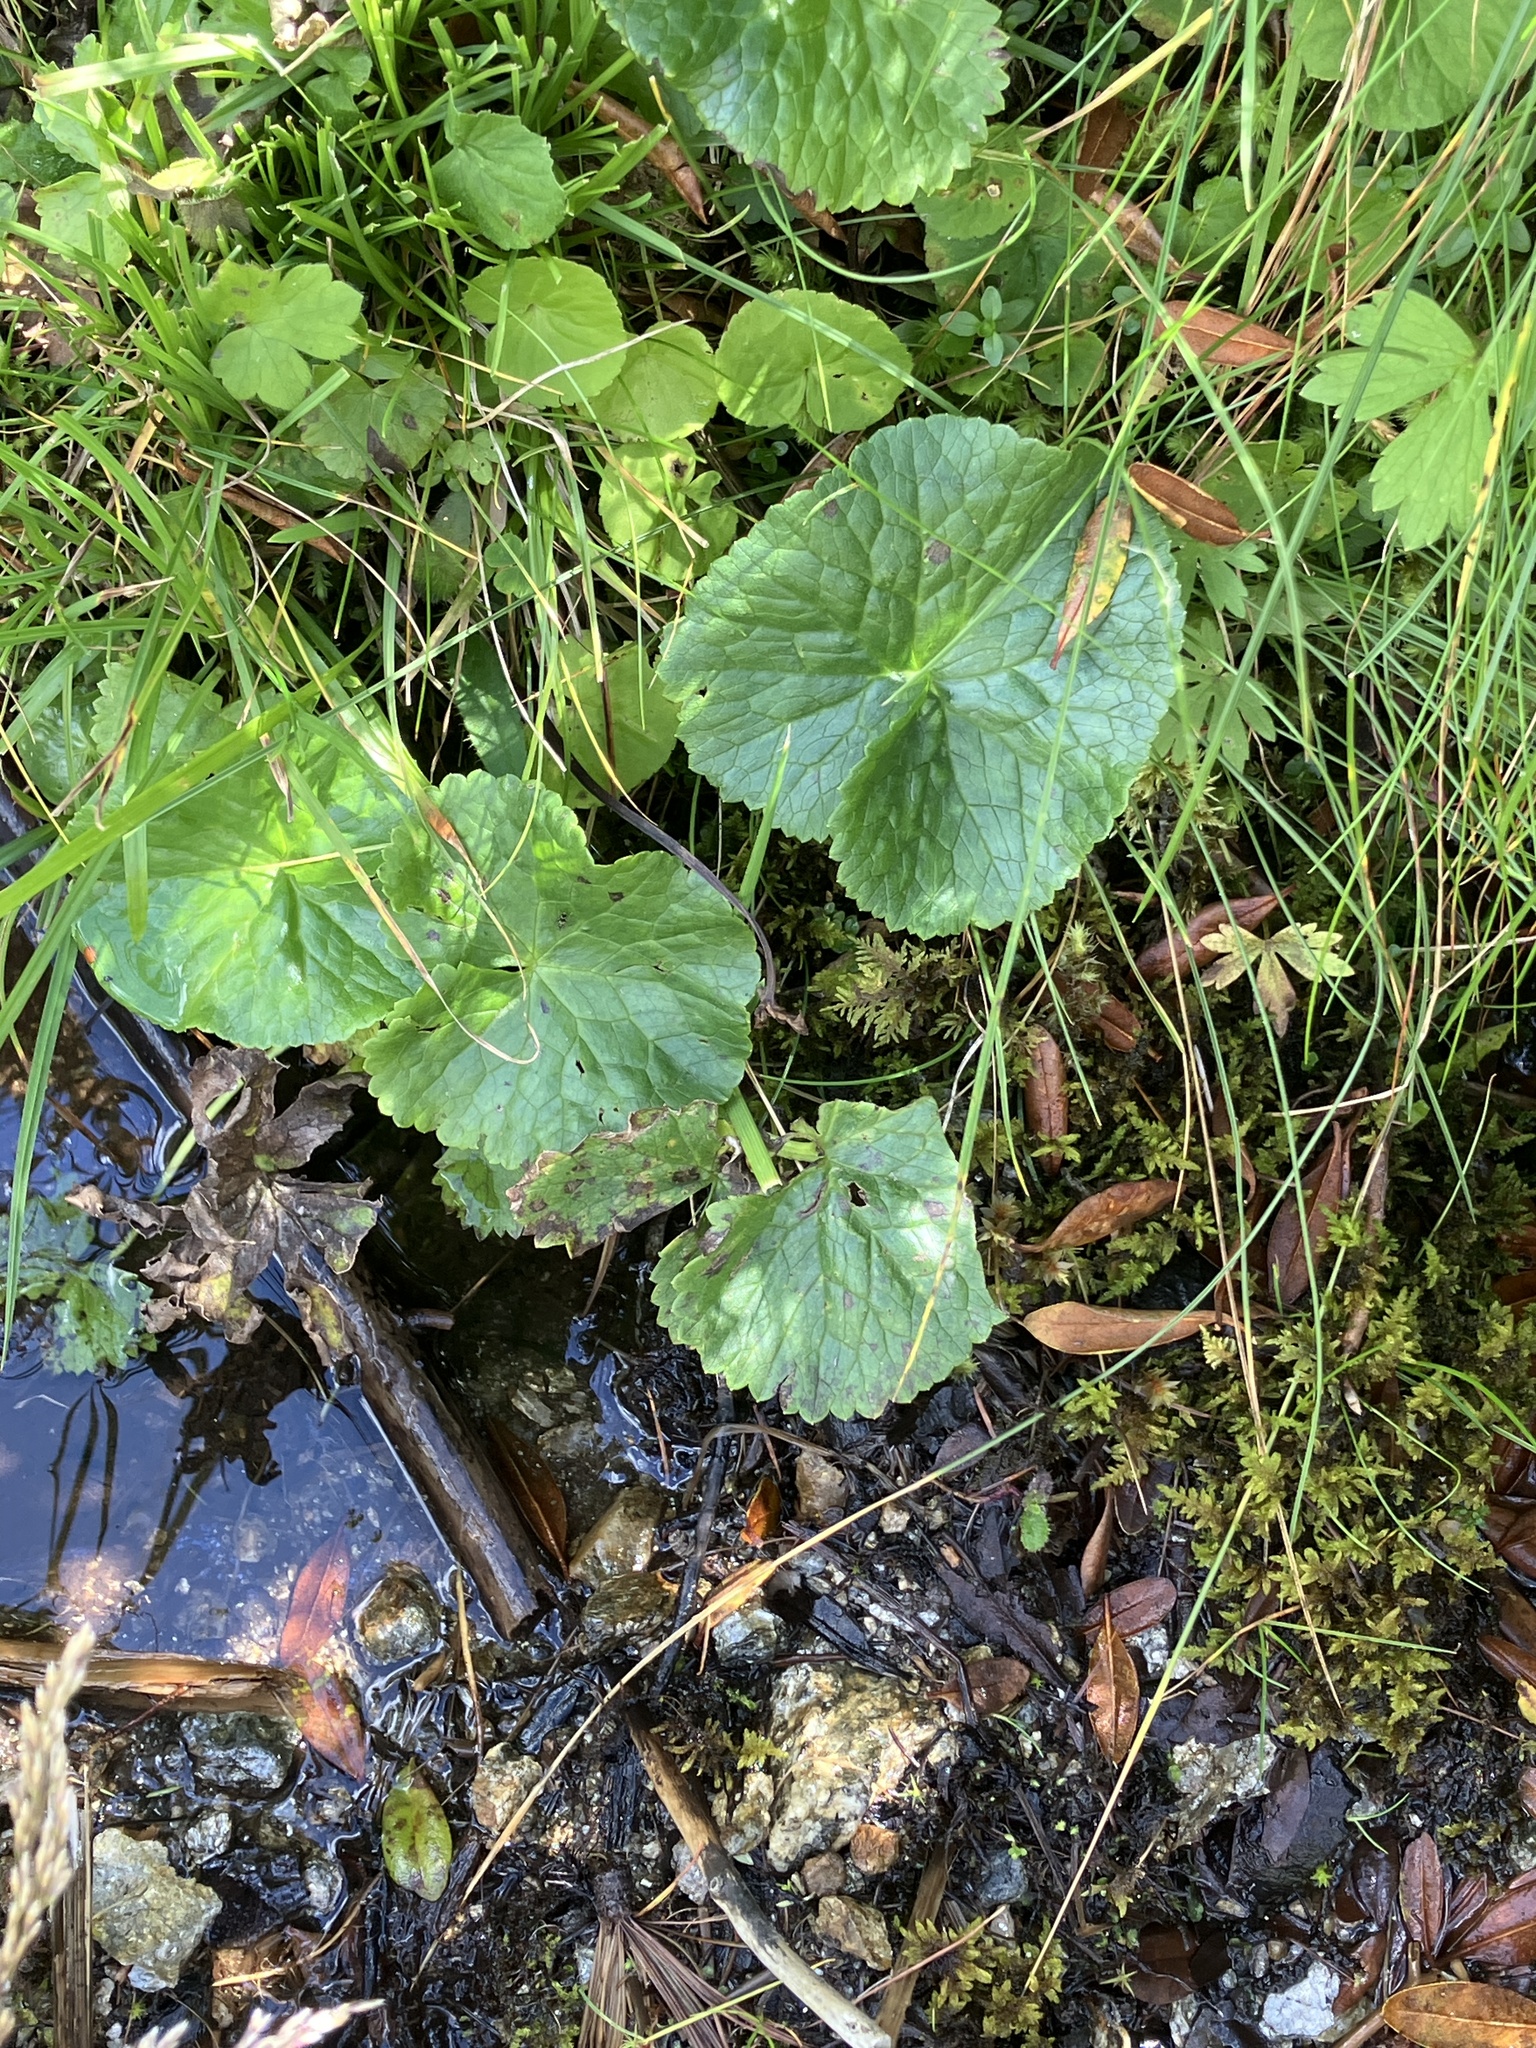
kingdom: Plantae
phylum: Tracheophyta
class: Magnoliopsida
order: Ranunculales
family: Ranunculaceae
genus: Caltha
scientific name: Caltha palustris
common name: Marsh marigold
